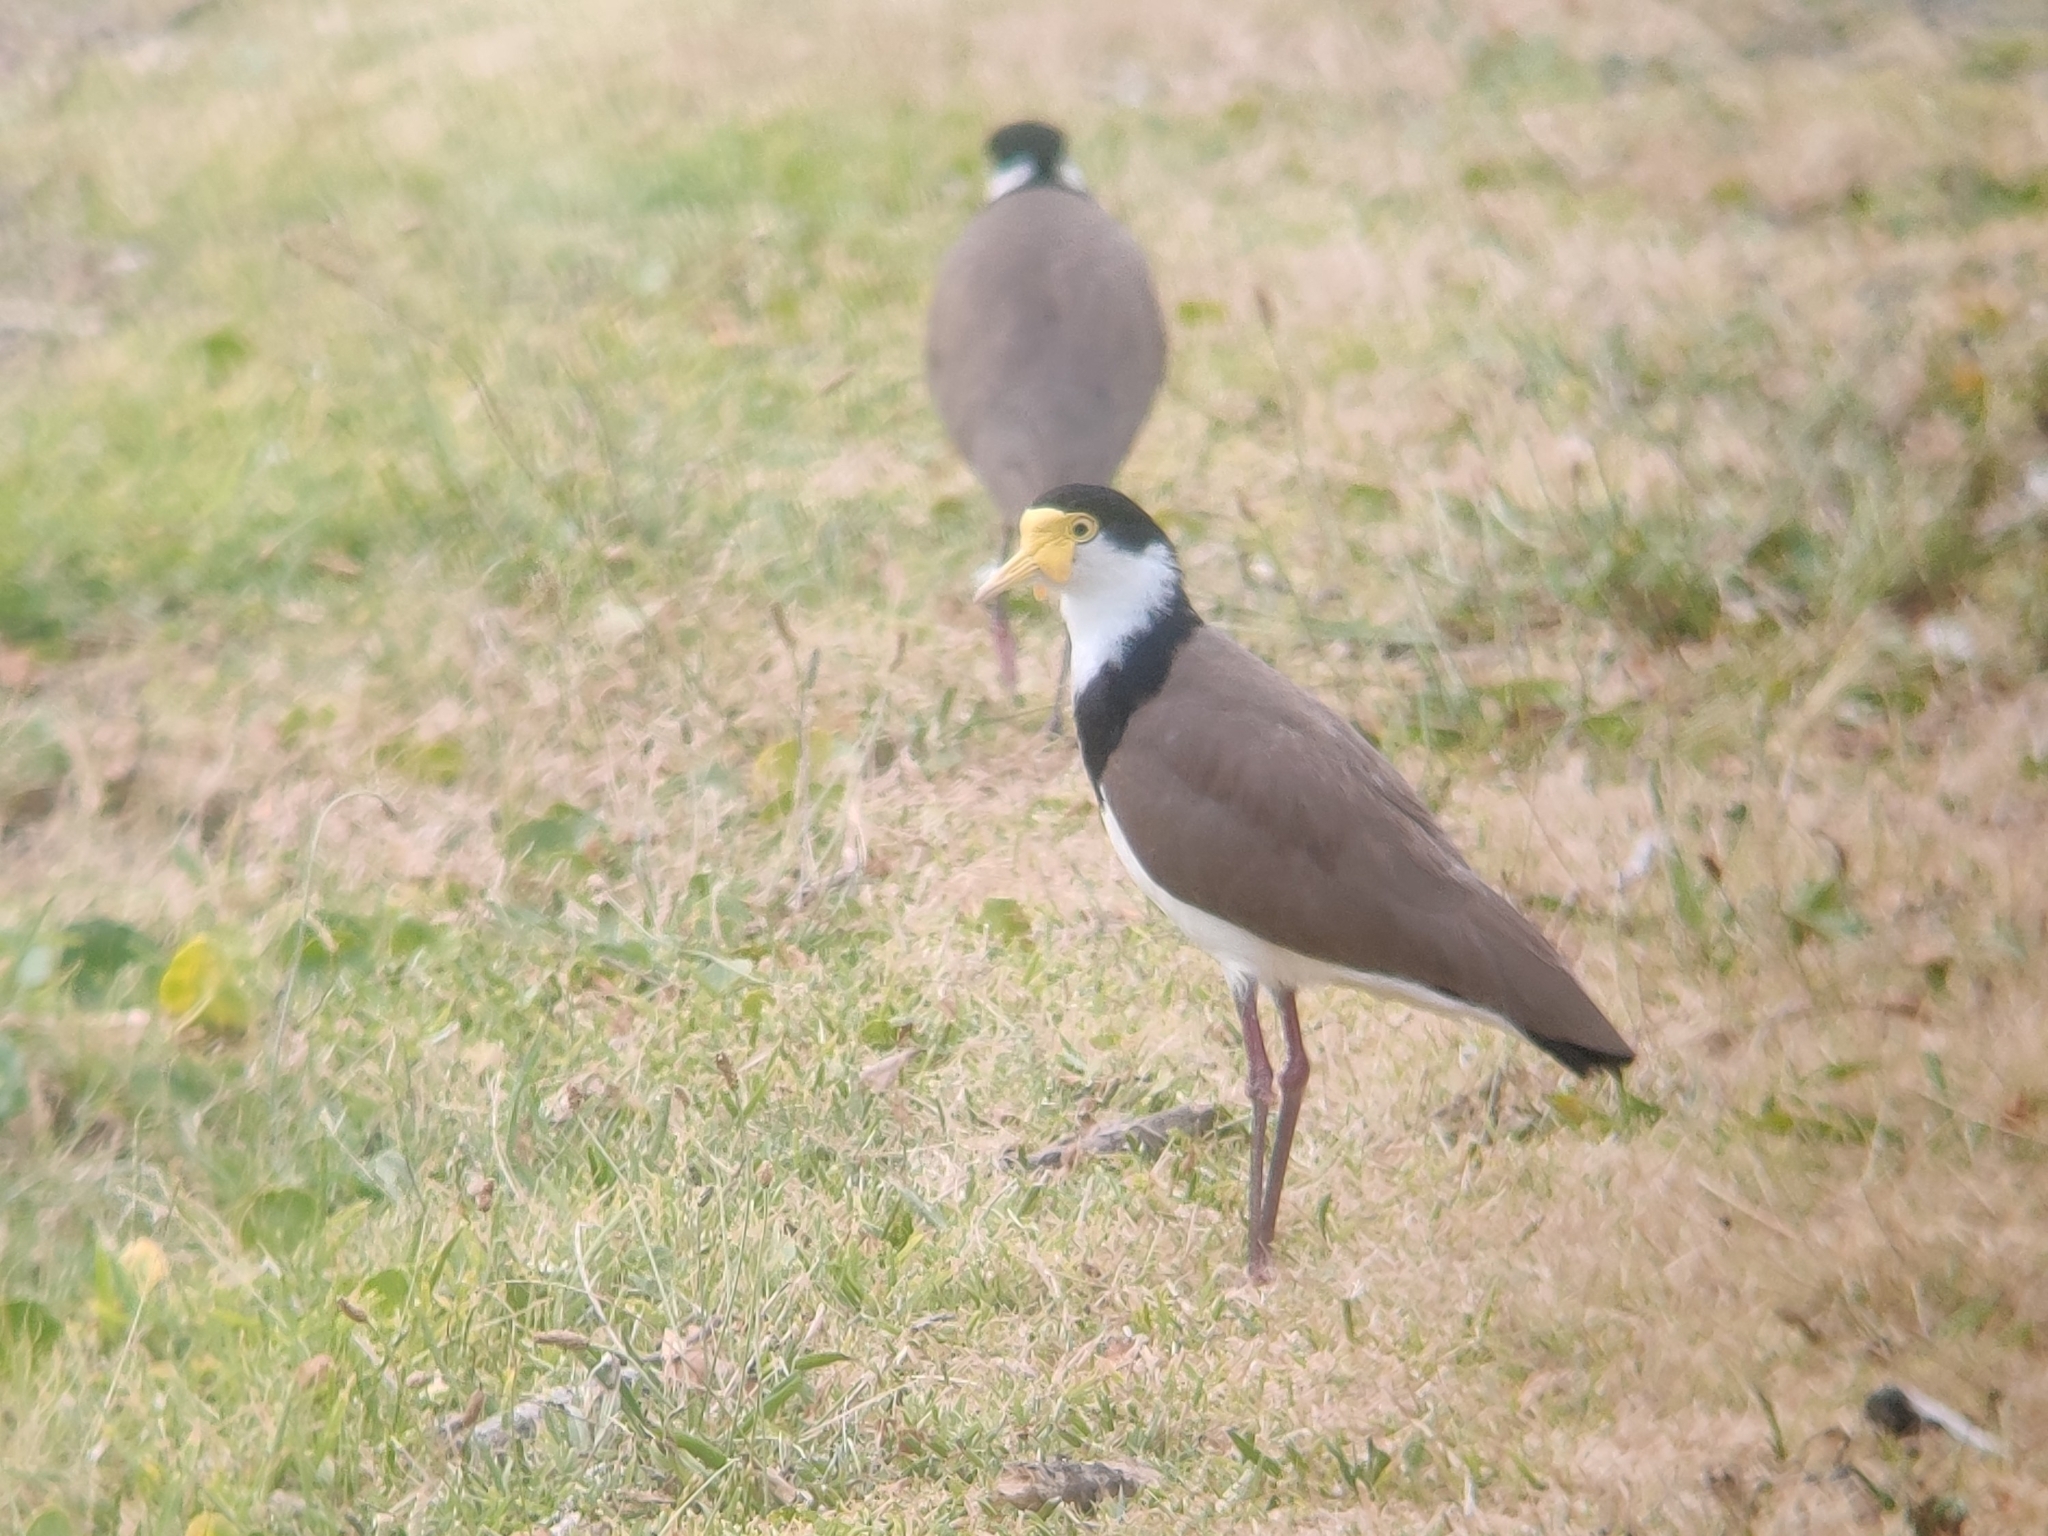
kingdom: Animalia
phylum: Chordata
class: Aves
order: Charadriiformes
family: Charadriidae
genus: Vanellus
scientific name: Vanellus miles
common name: Masked lapwing
